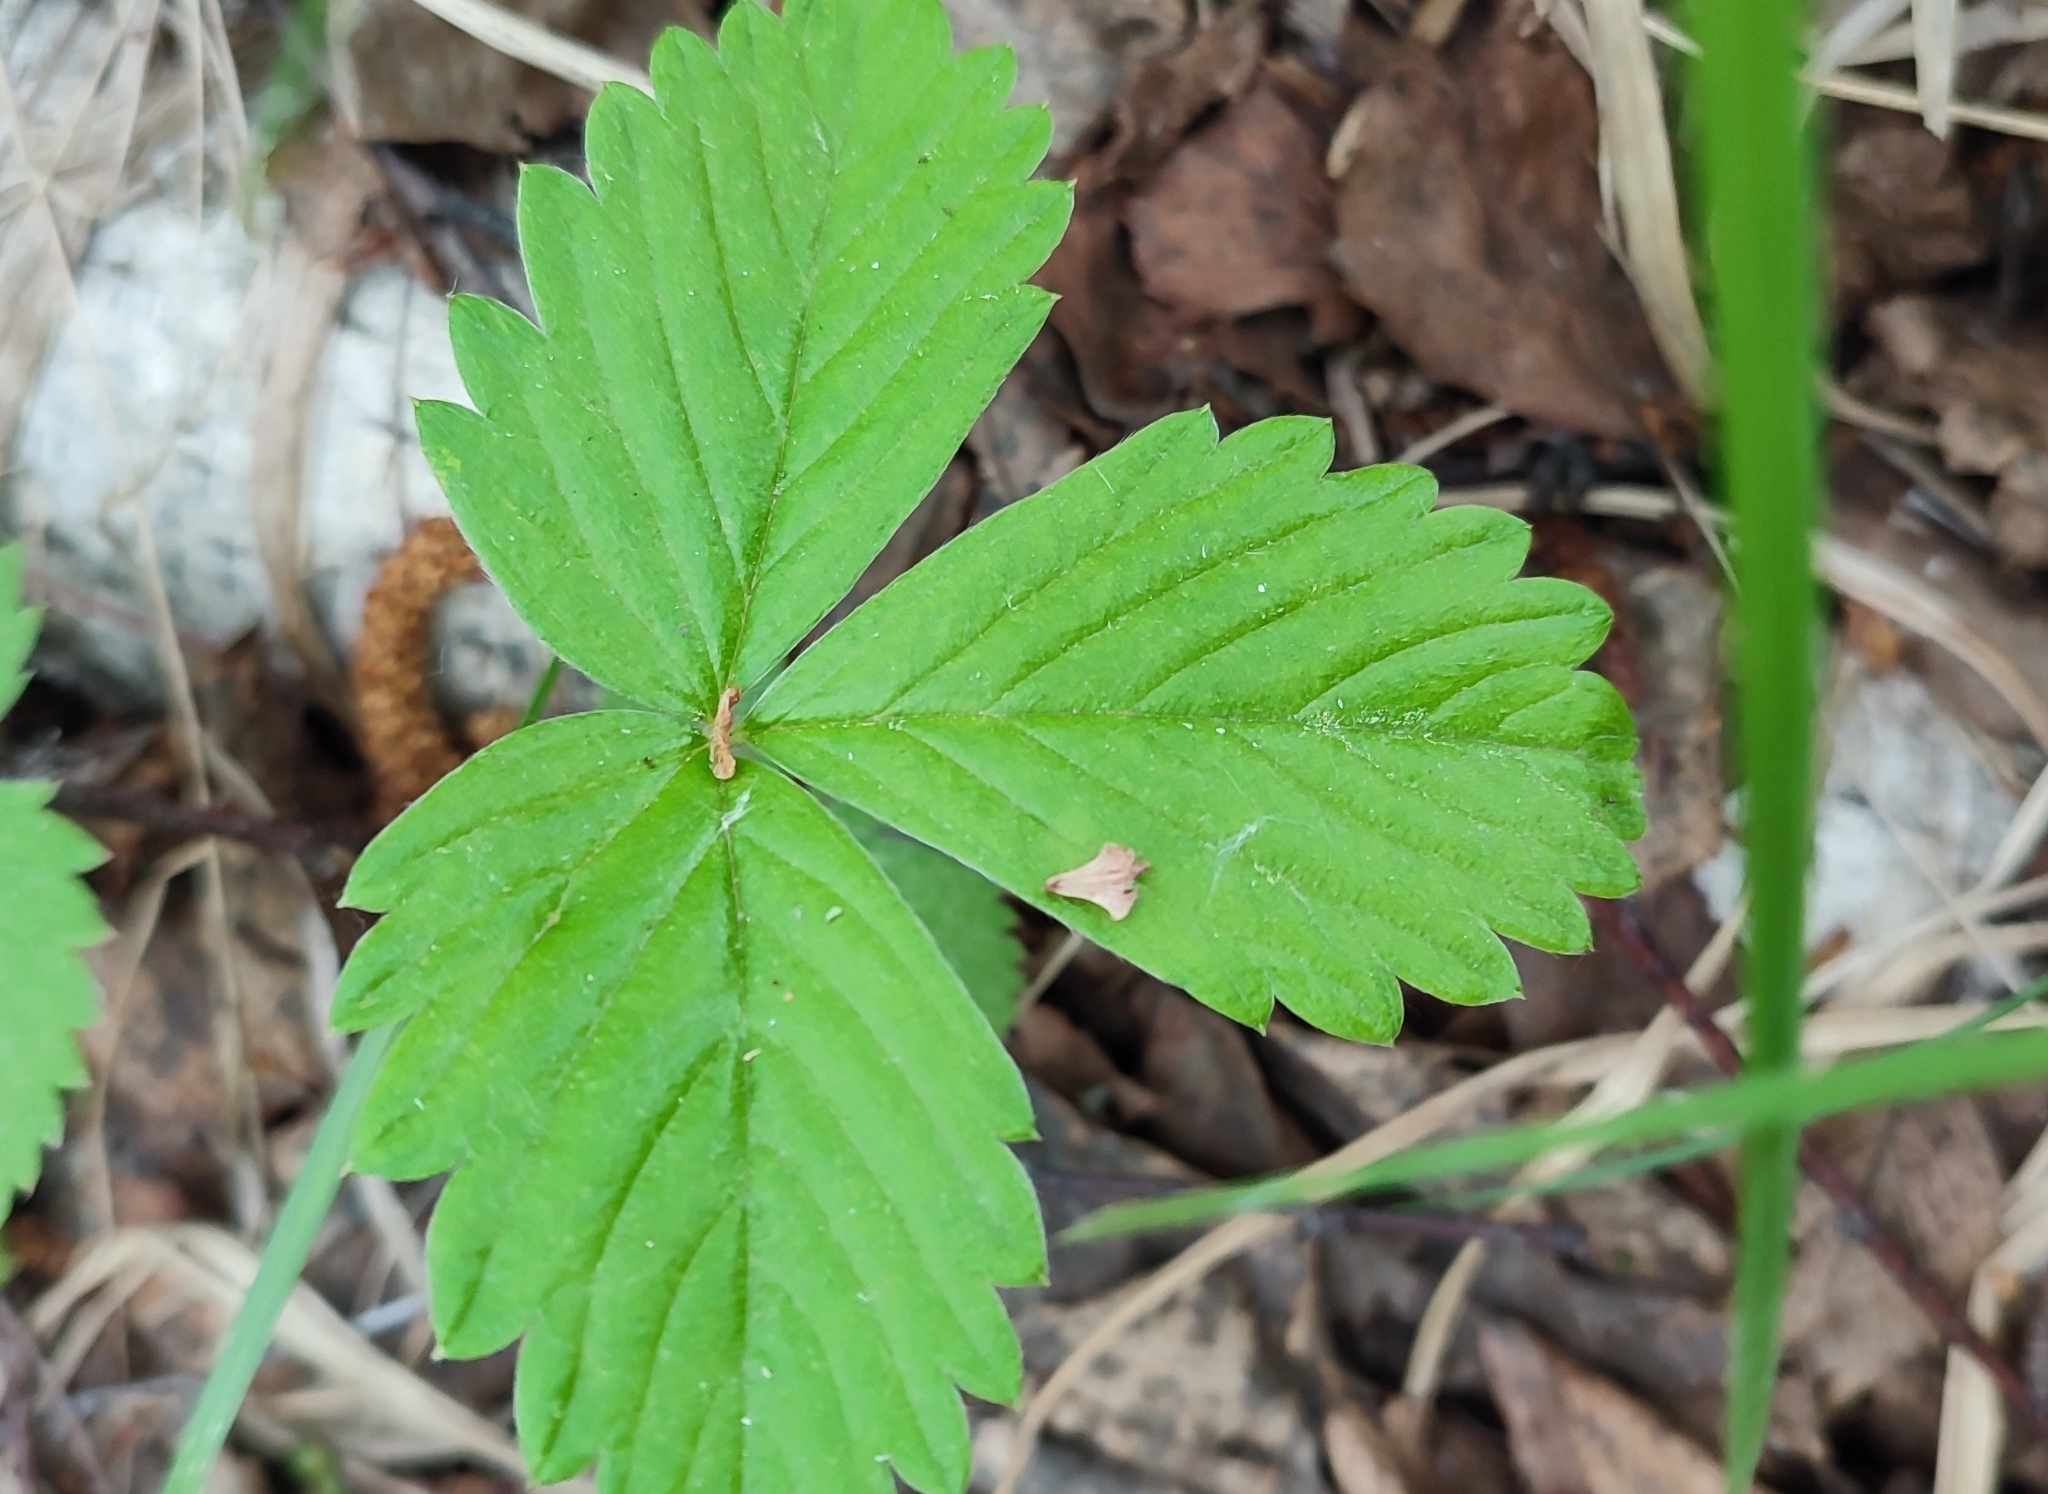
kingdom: Plantae
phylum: Tracheophyta
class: Magnoliopsida
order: Rosales
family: Rosaceae
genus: Fragaria
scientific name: Fragaria vesca
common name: Wild strawberry
